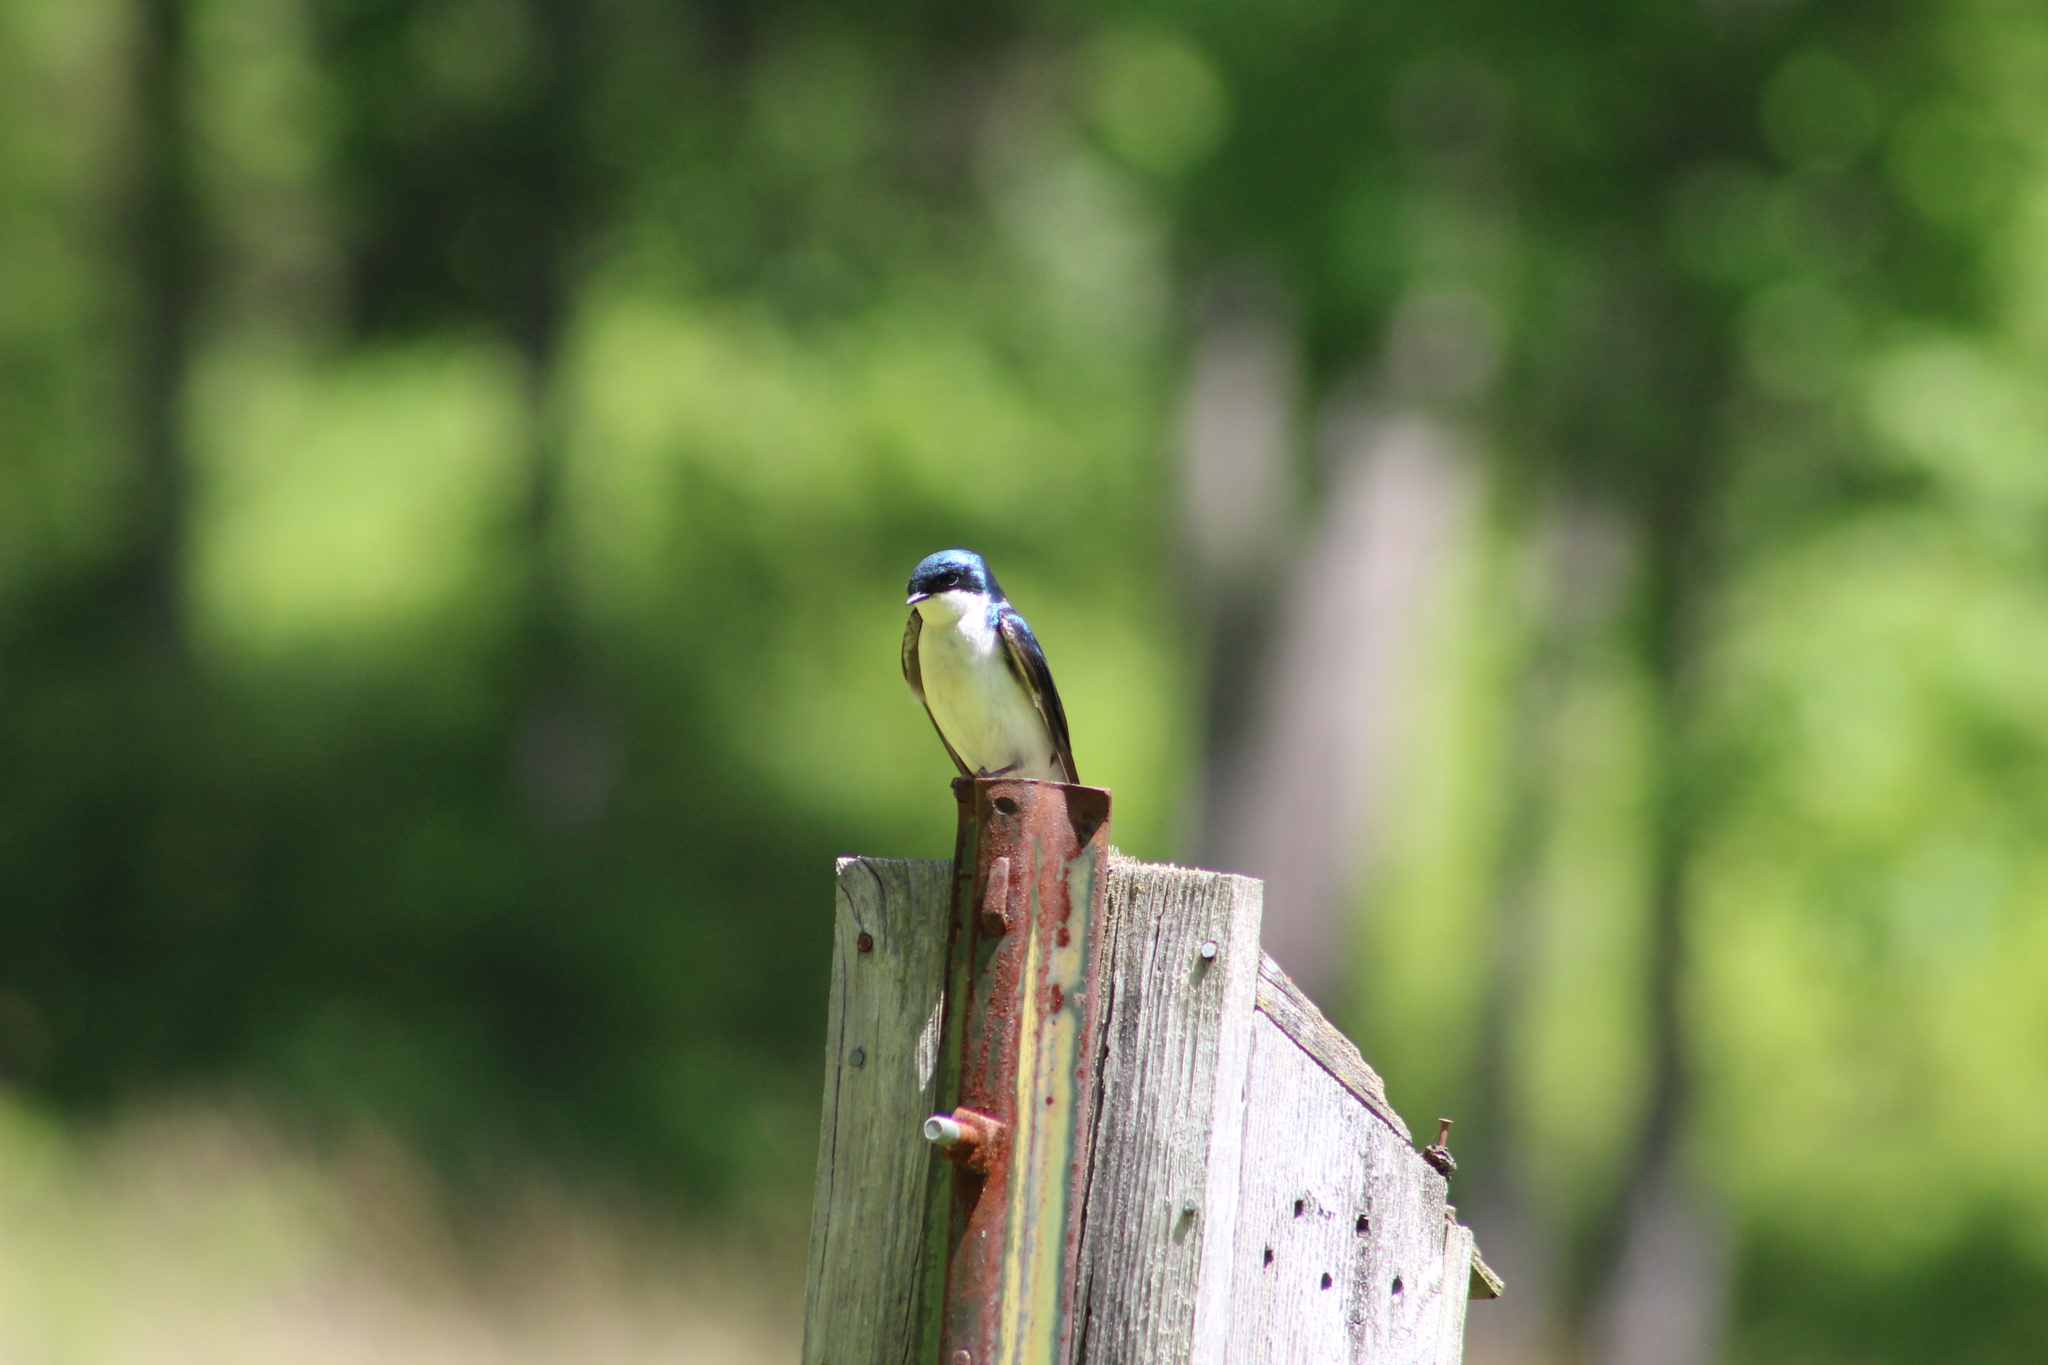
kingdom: Animalia
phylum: Chordata
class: Aves
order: Passeriformes
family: Hirundinidae
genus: Tachycineta
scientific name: Tachycineta bicolor
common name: Tree swallow
